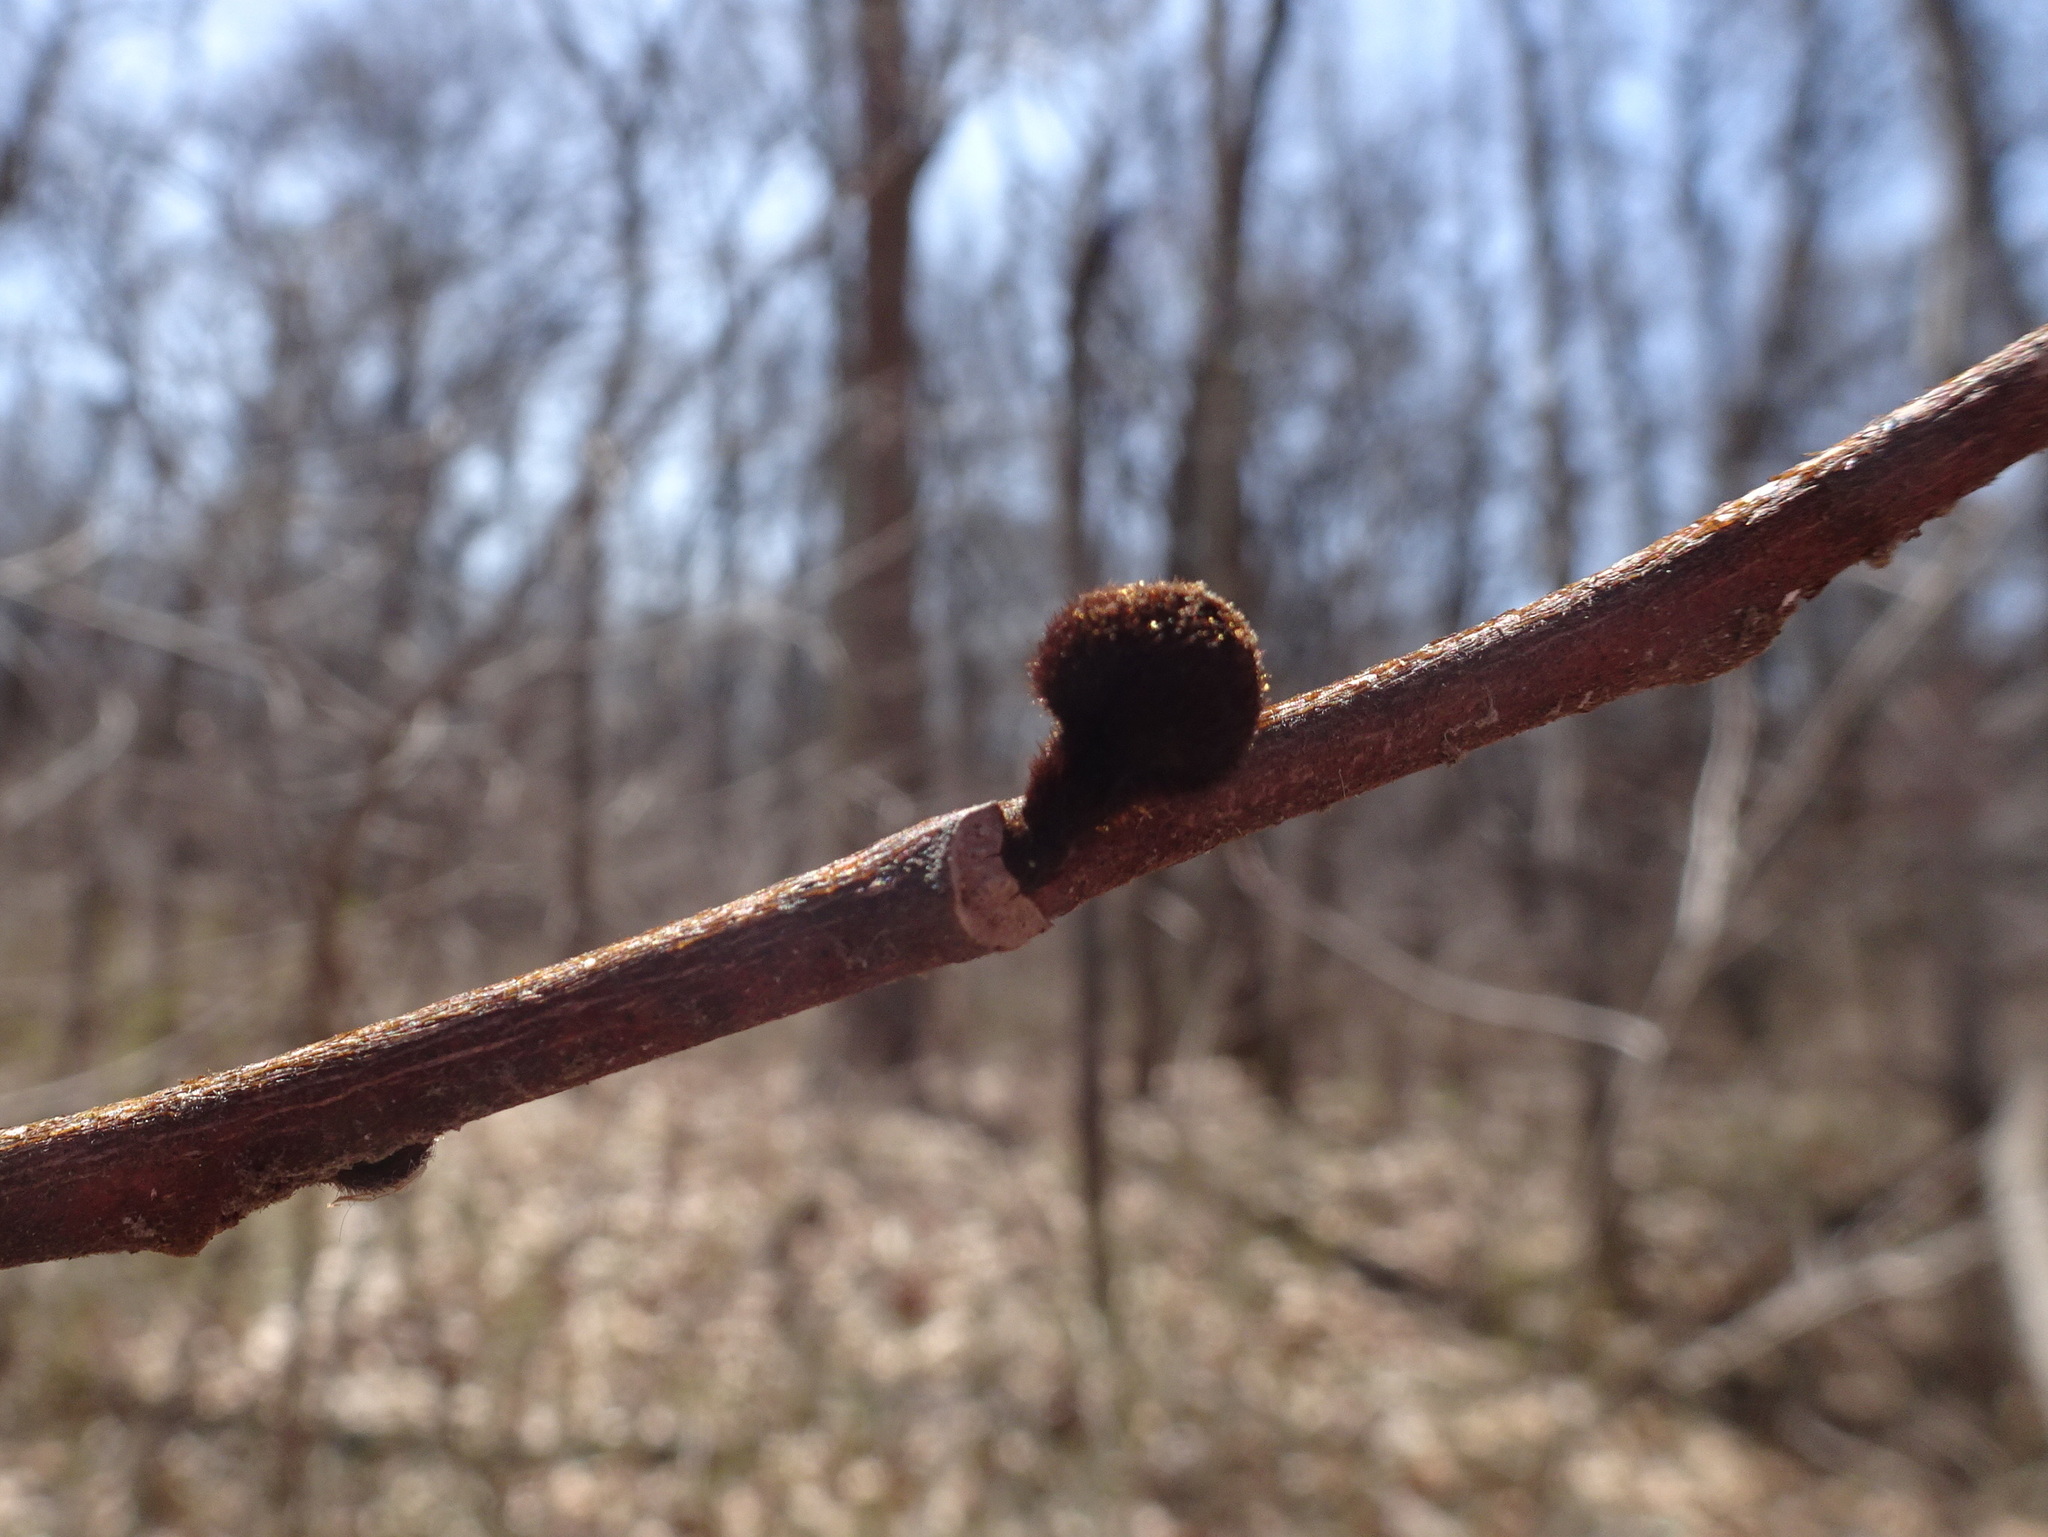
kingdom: Plantae
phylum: Tracheophyta
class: Magnoliopsida
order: Magnoliales
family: Annonaceae
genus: Asimina
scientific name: Asimina triloba
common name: Dog-banana
